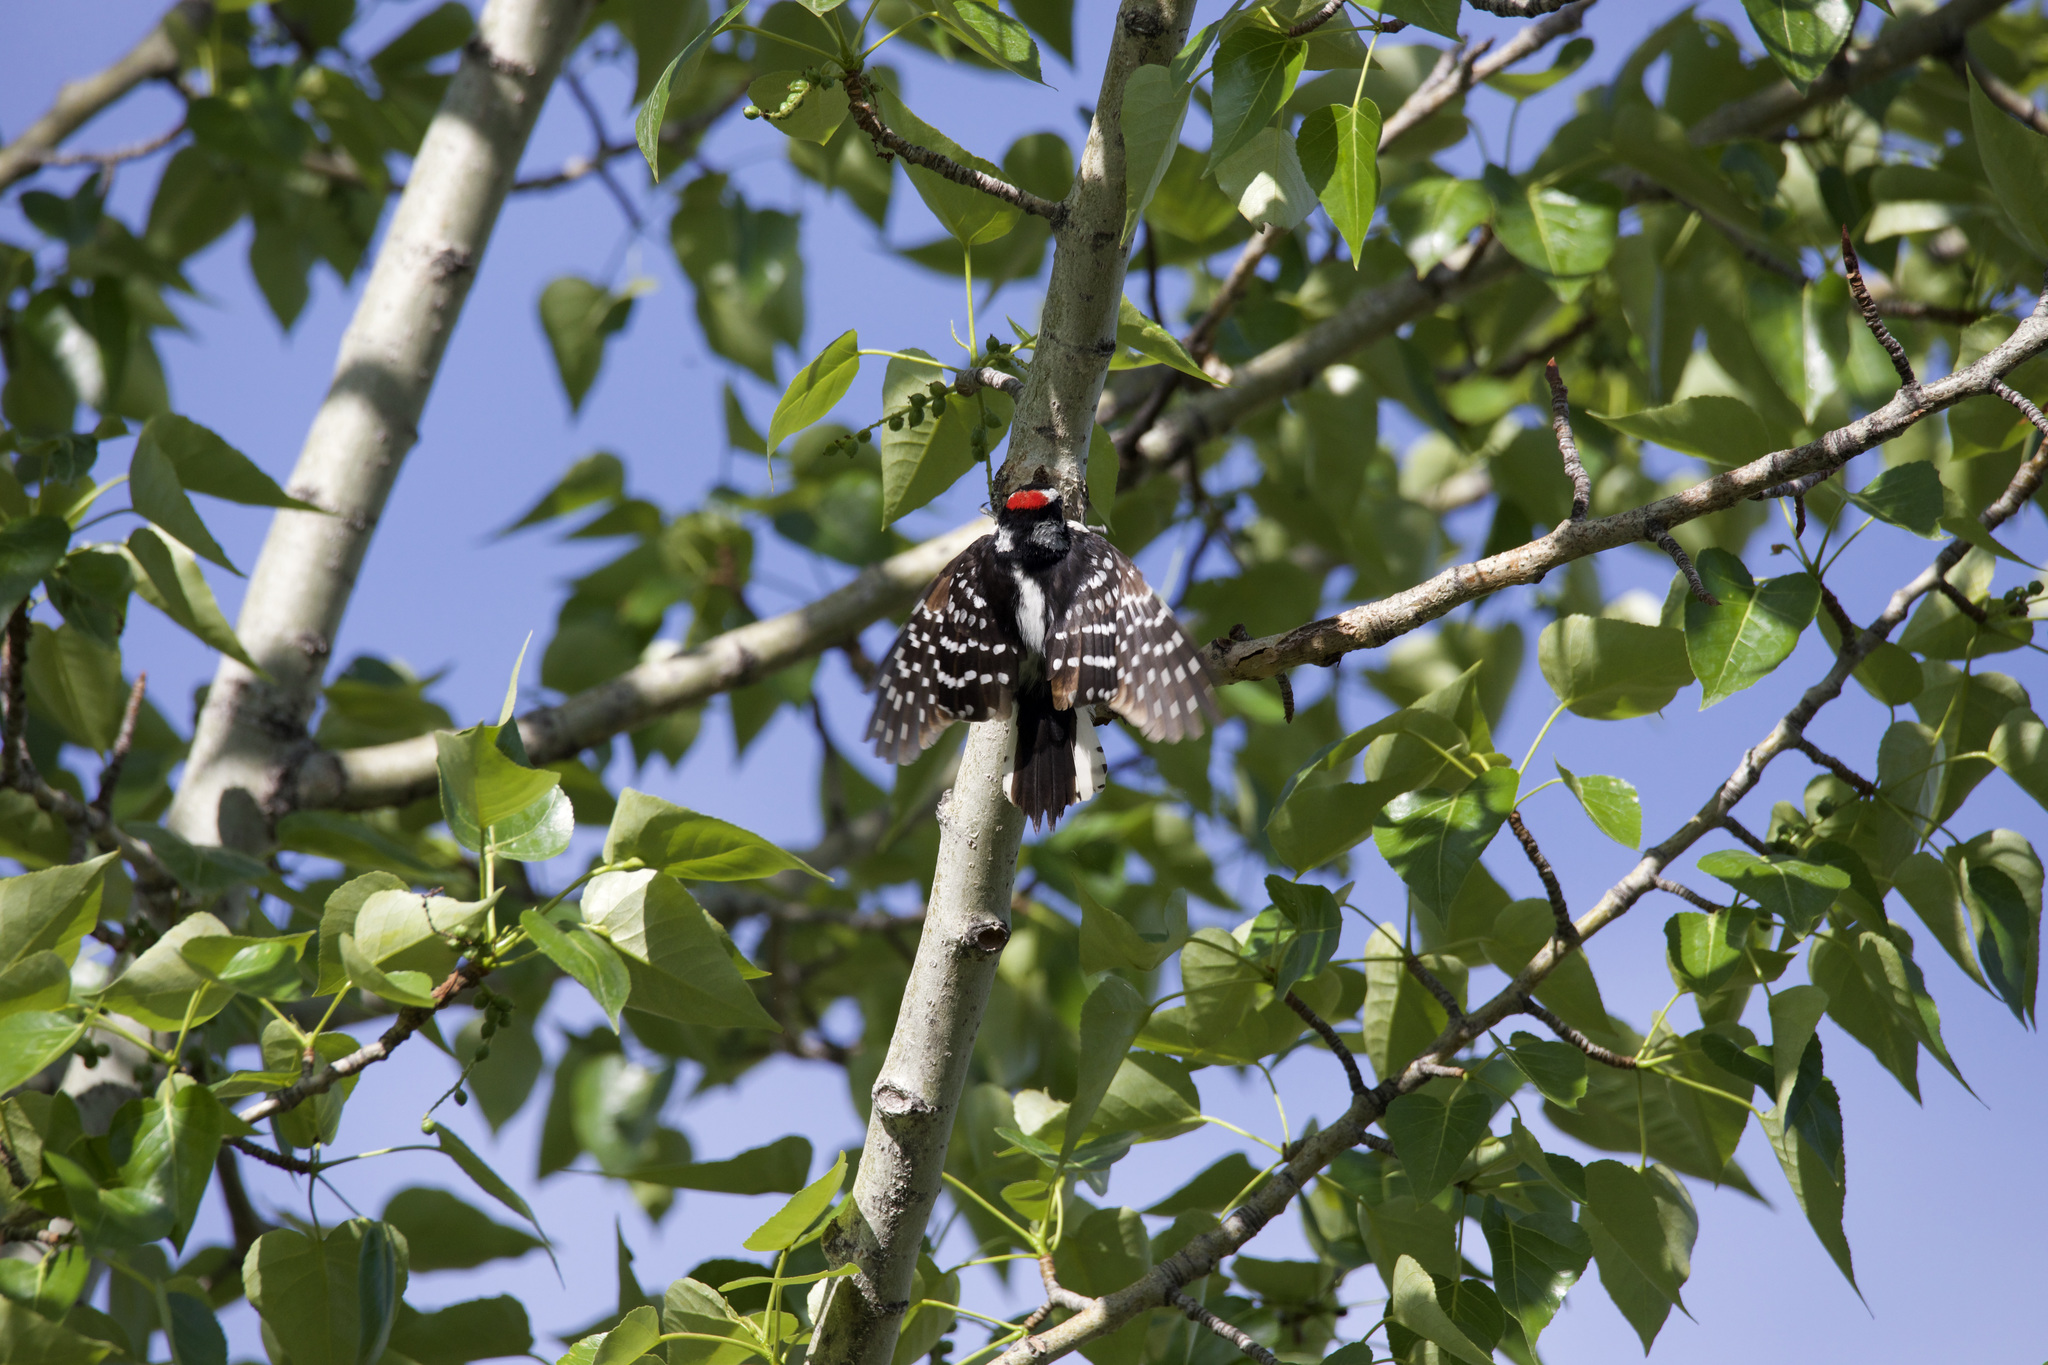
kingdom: Animalia
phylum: Chordata
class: Aves
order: Piciformes
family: Picidae
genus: Dryobates
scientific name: Dryobates pubescens
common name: Downy woodpecker
